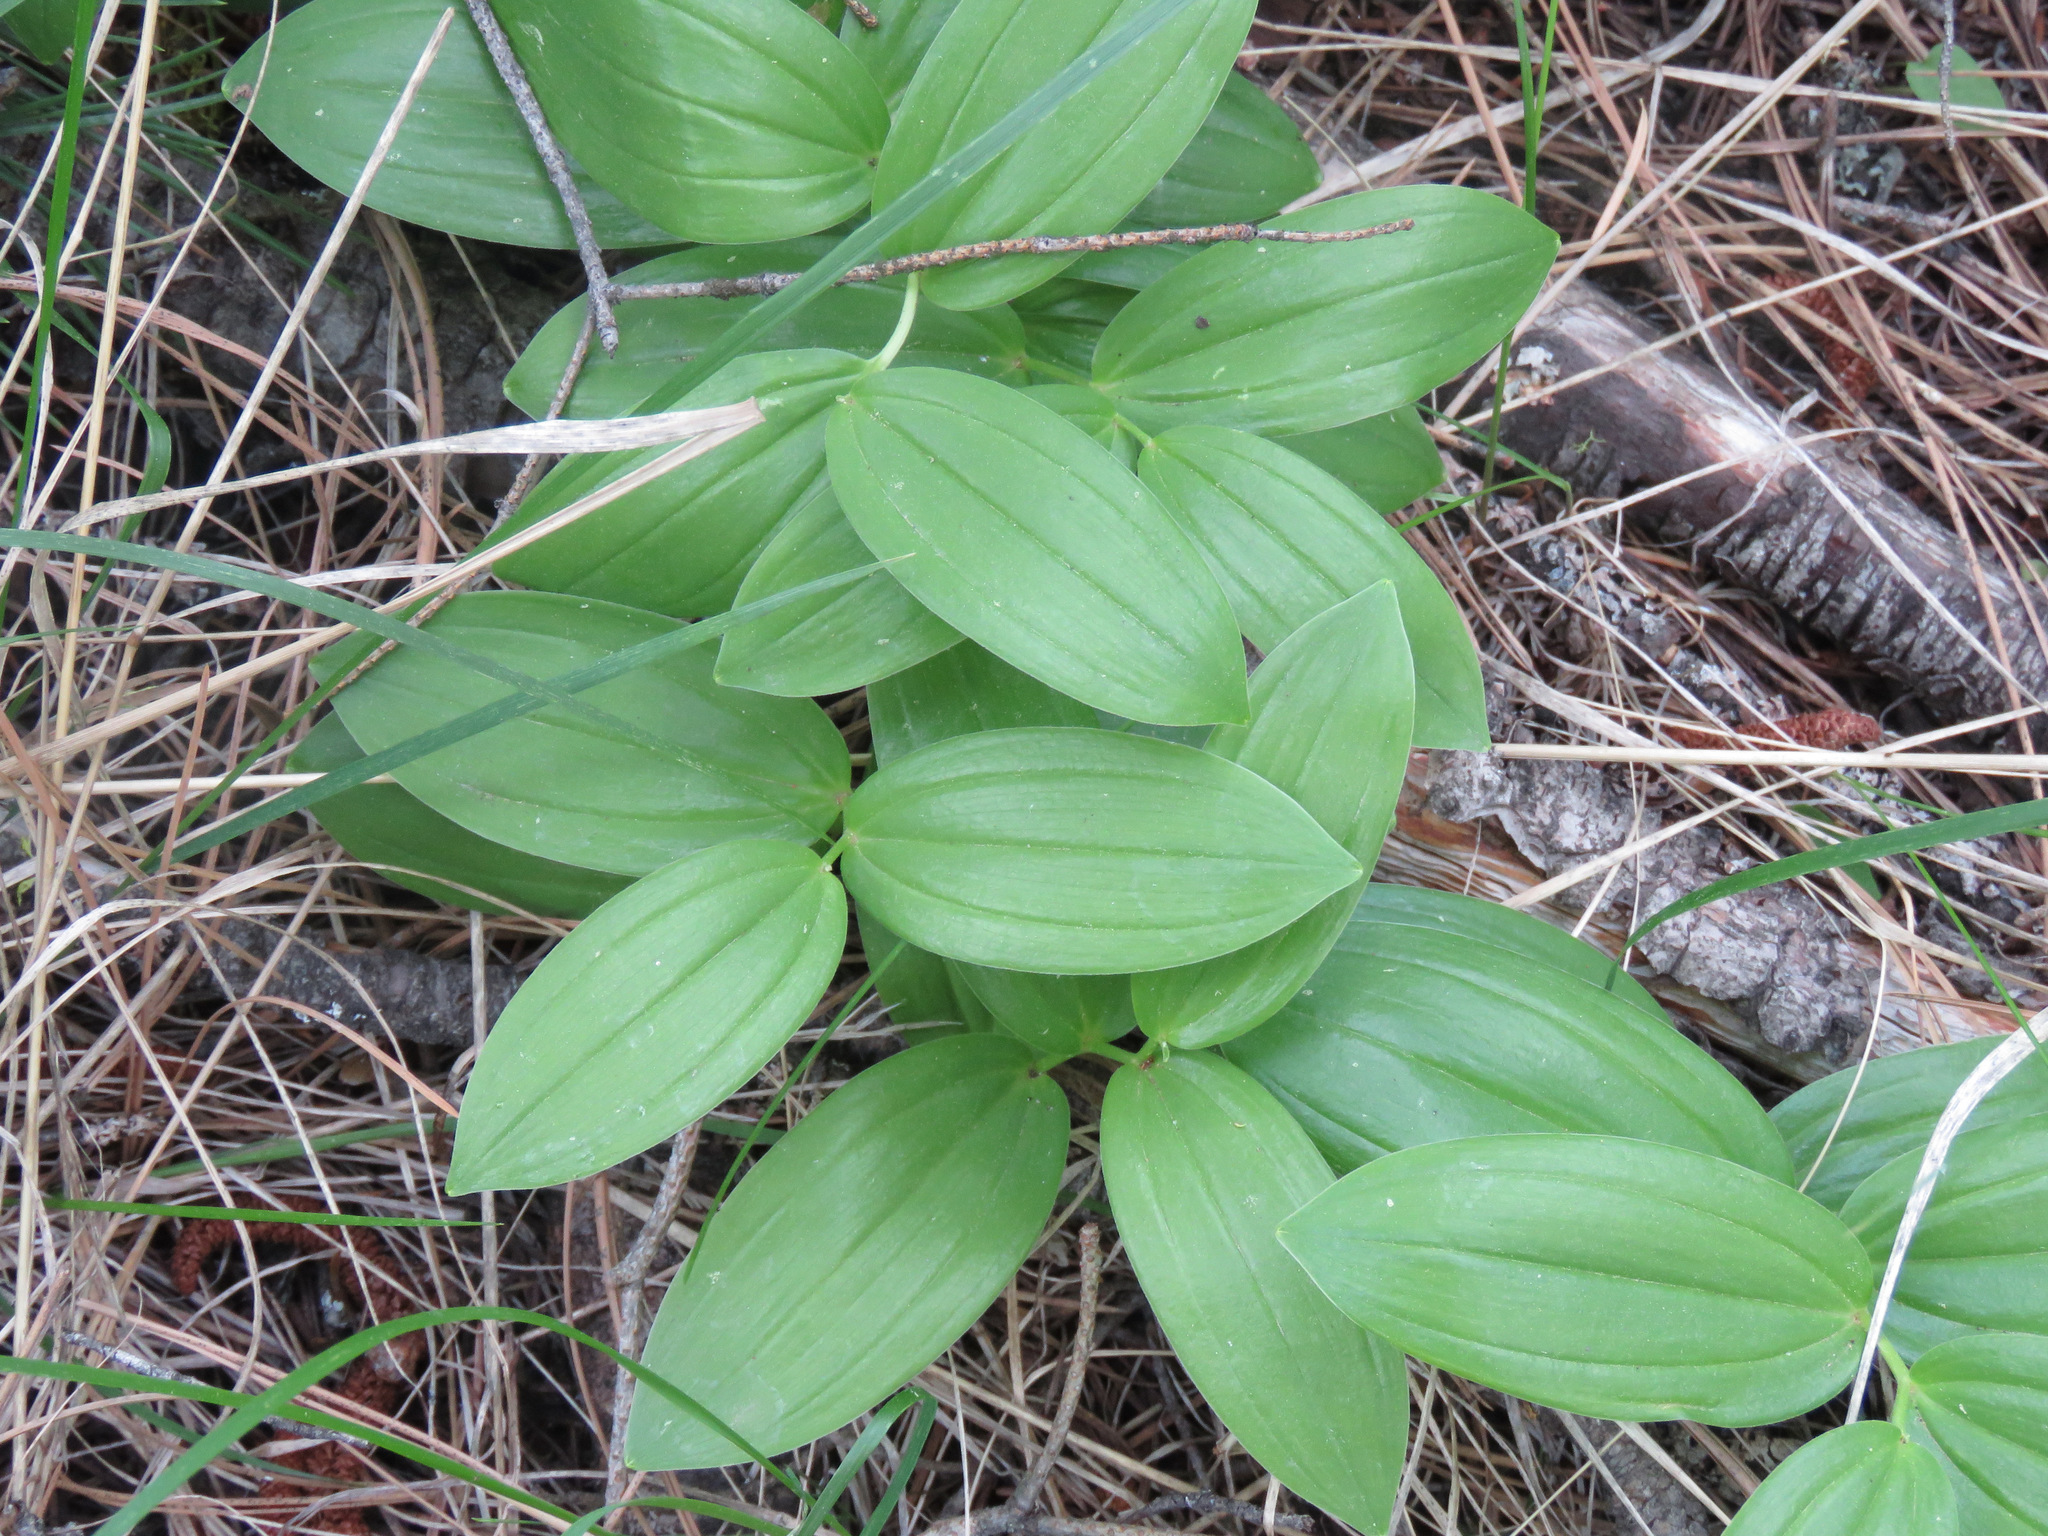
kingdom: Plantae
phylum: Tracheophyta
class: Liliopsida
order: Asparagales
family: Asparagaceae
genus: Maianthemum
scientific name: Maianthemum racemosum
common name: False spikenard
